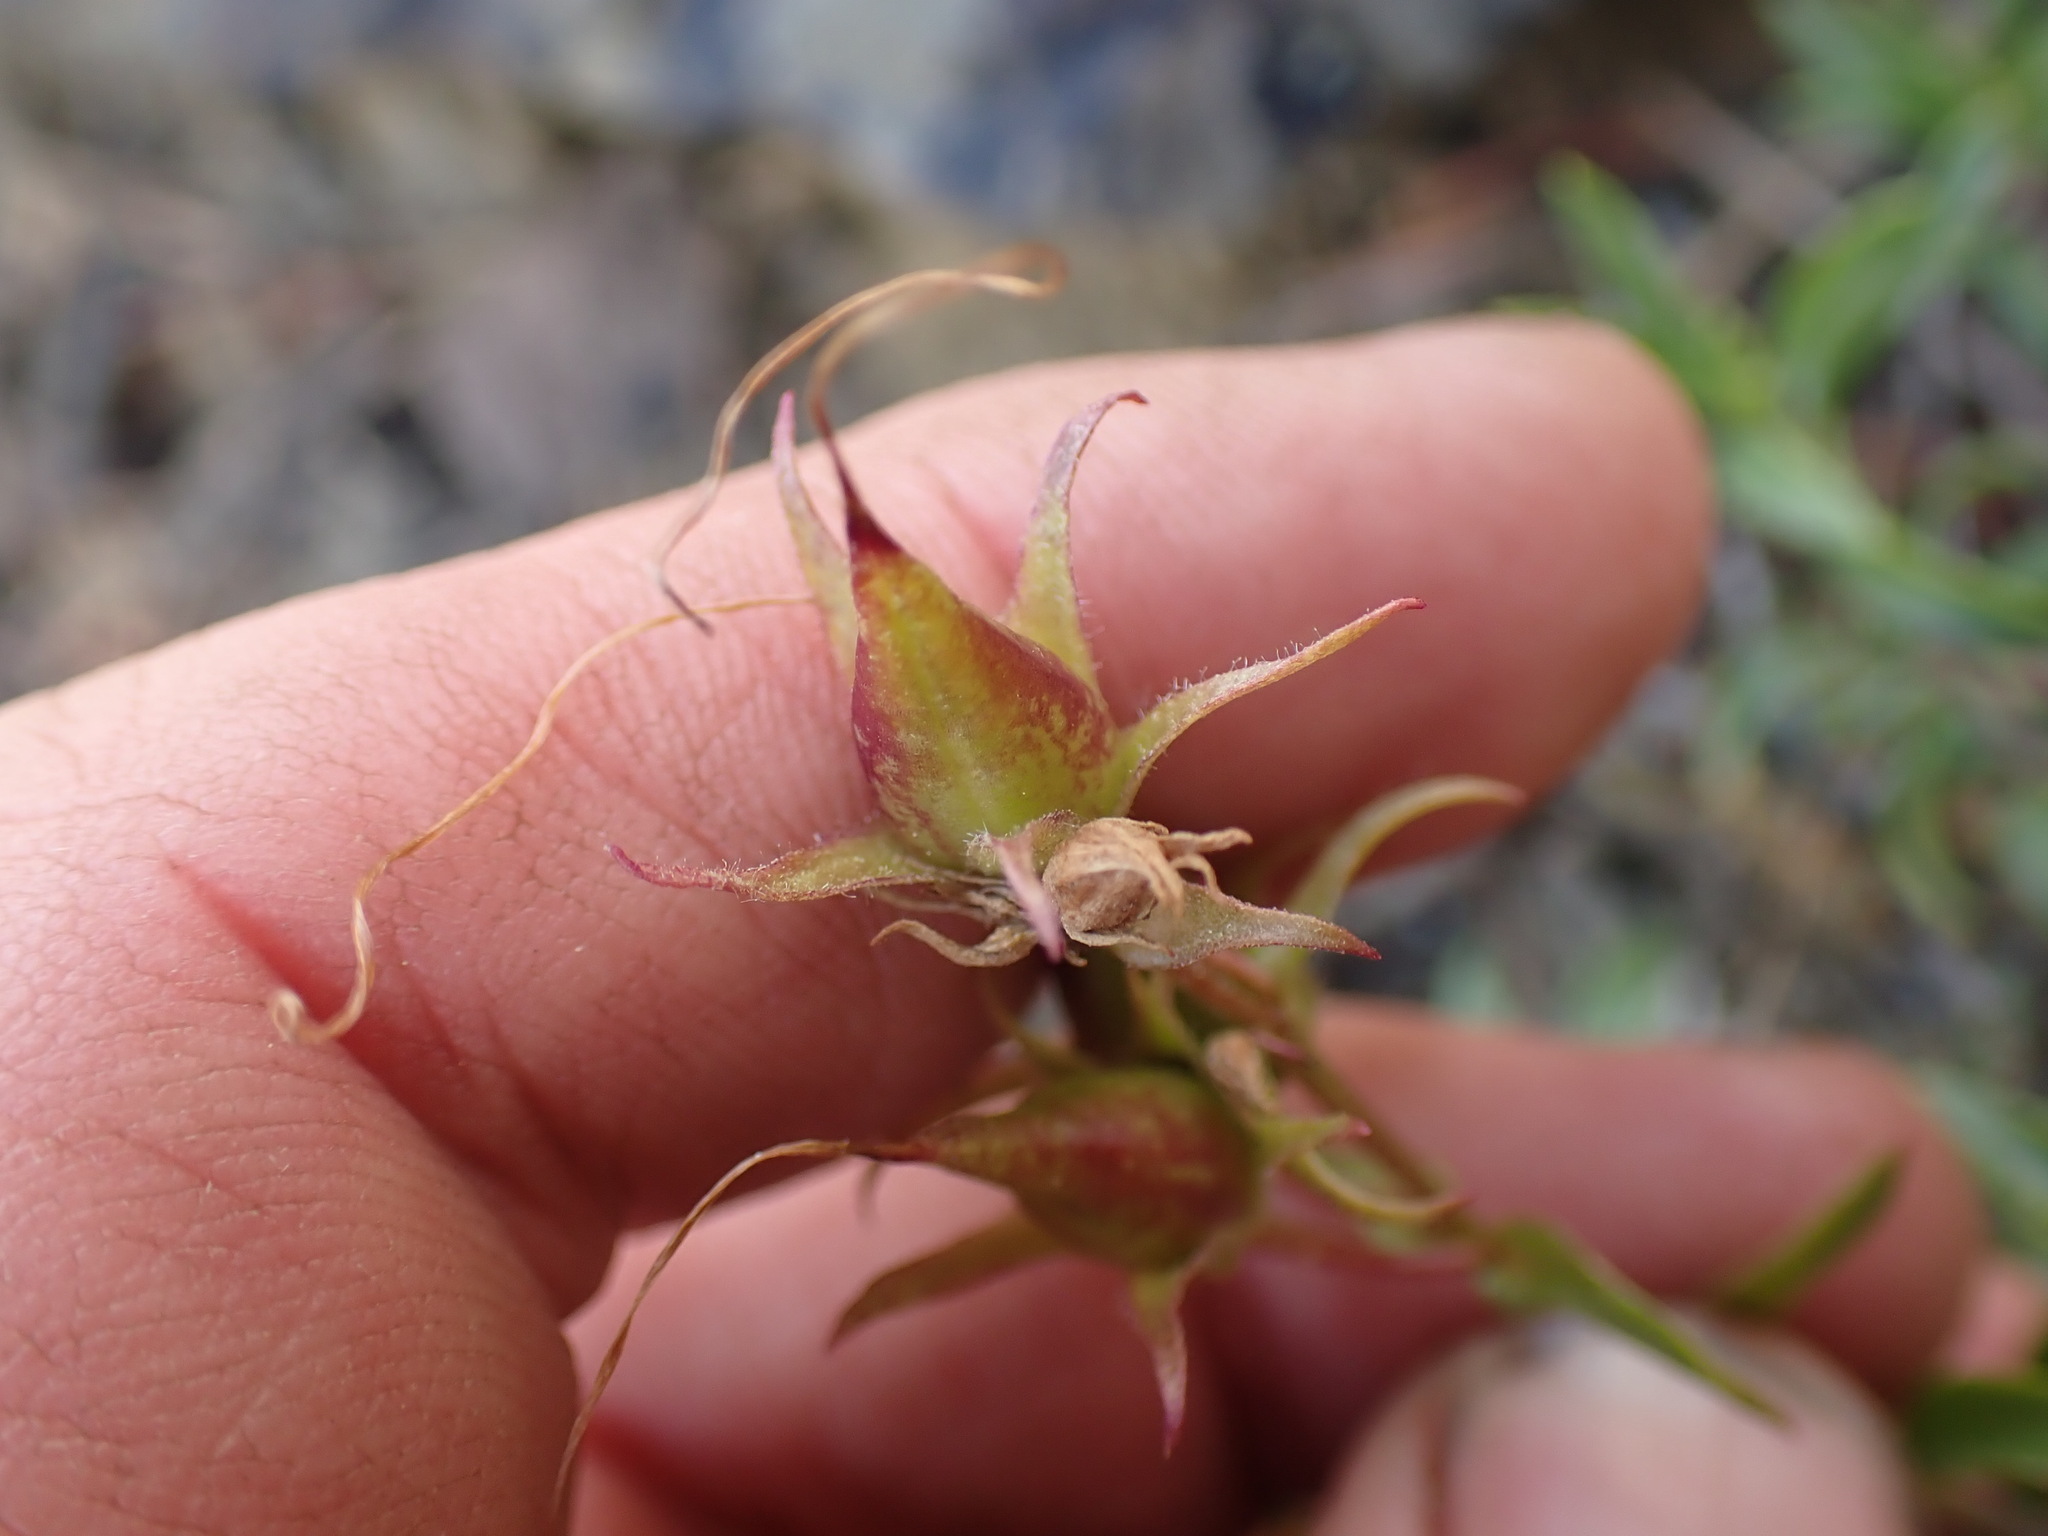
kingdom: Plantae
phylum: Tracheophyta
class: Magnoliopsida
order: Lamiales
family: Plantaginaceae
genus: Penstemon
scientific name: Penstemon fruticosus
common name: Bush penstemon
